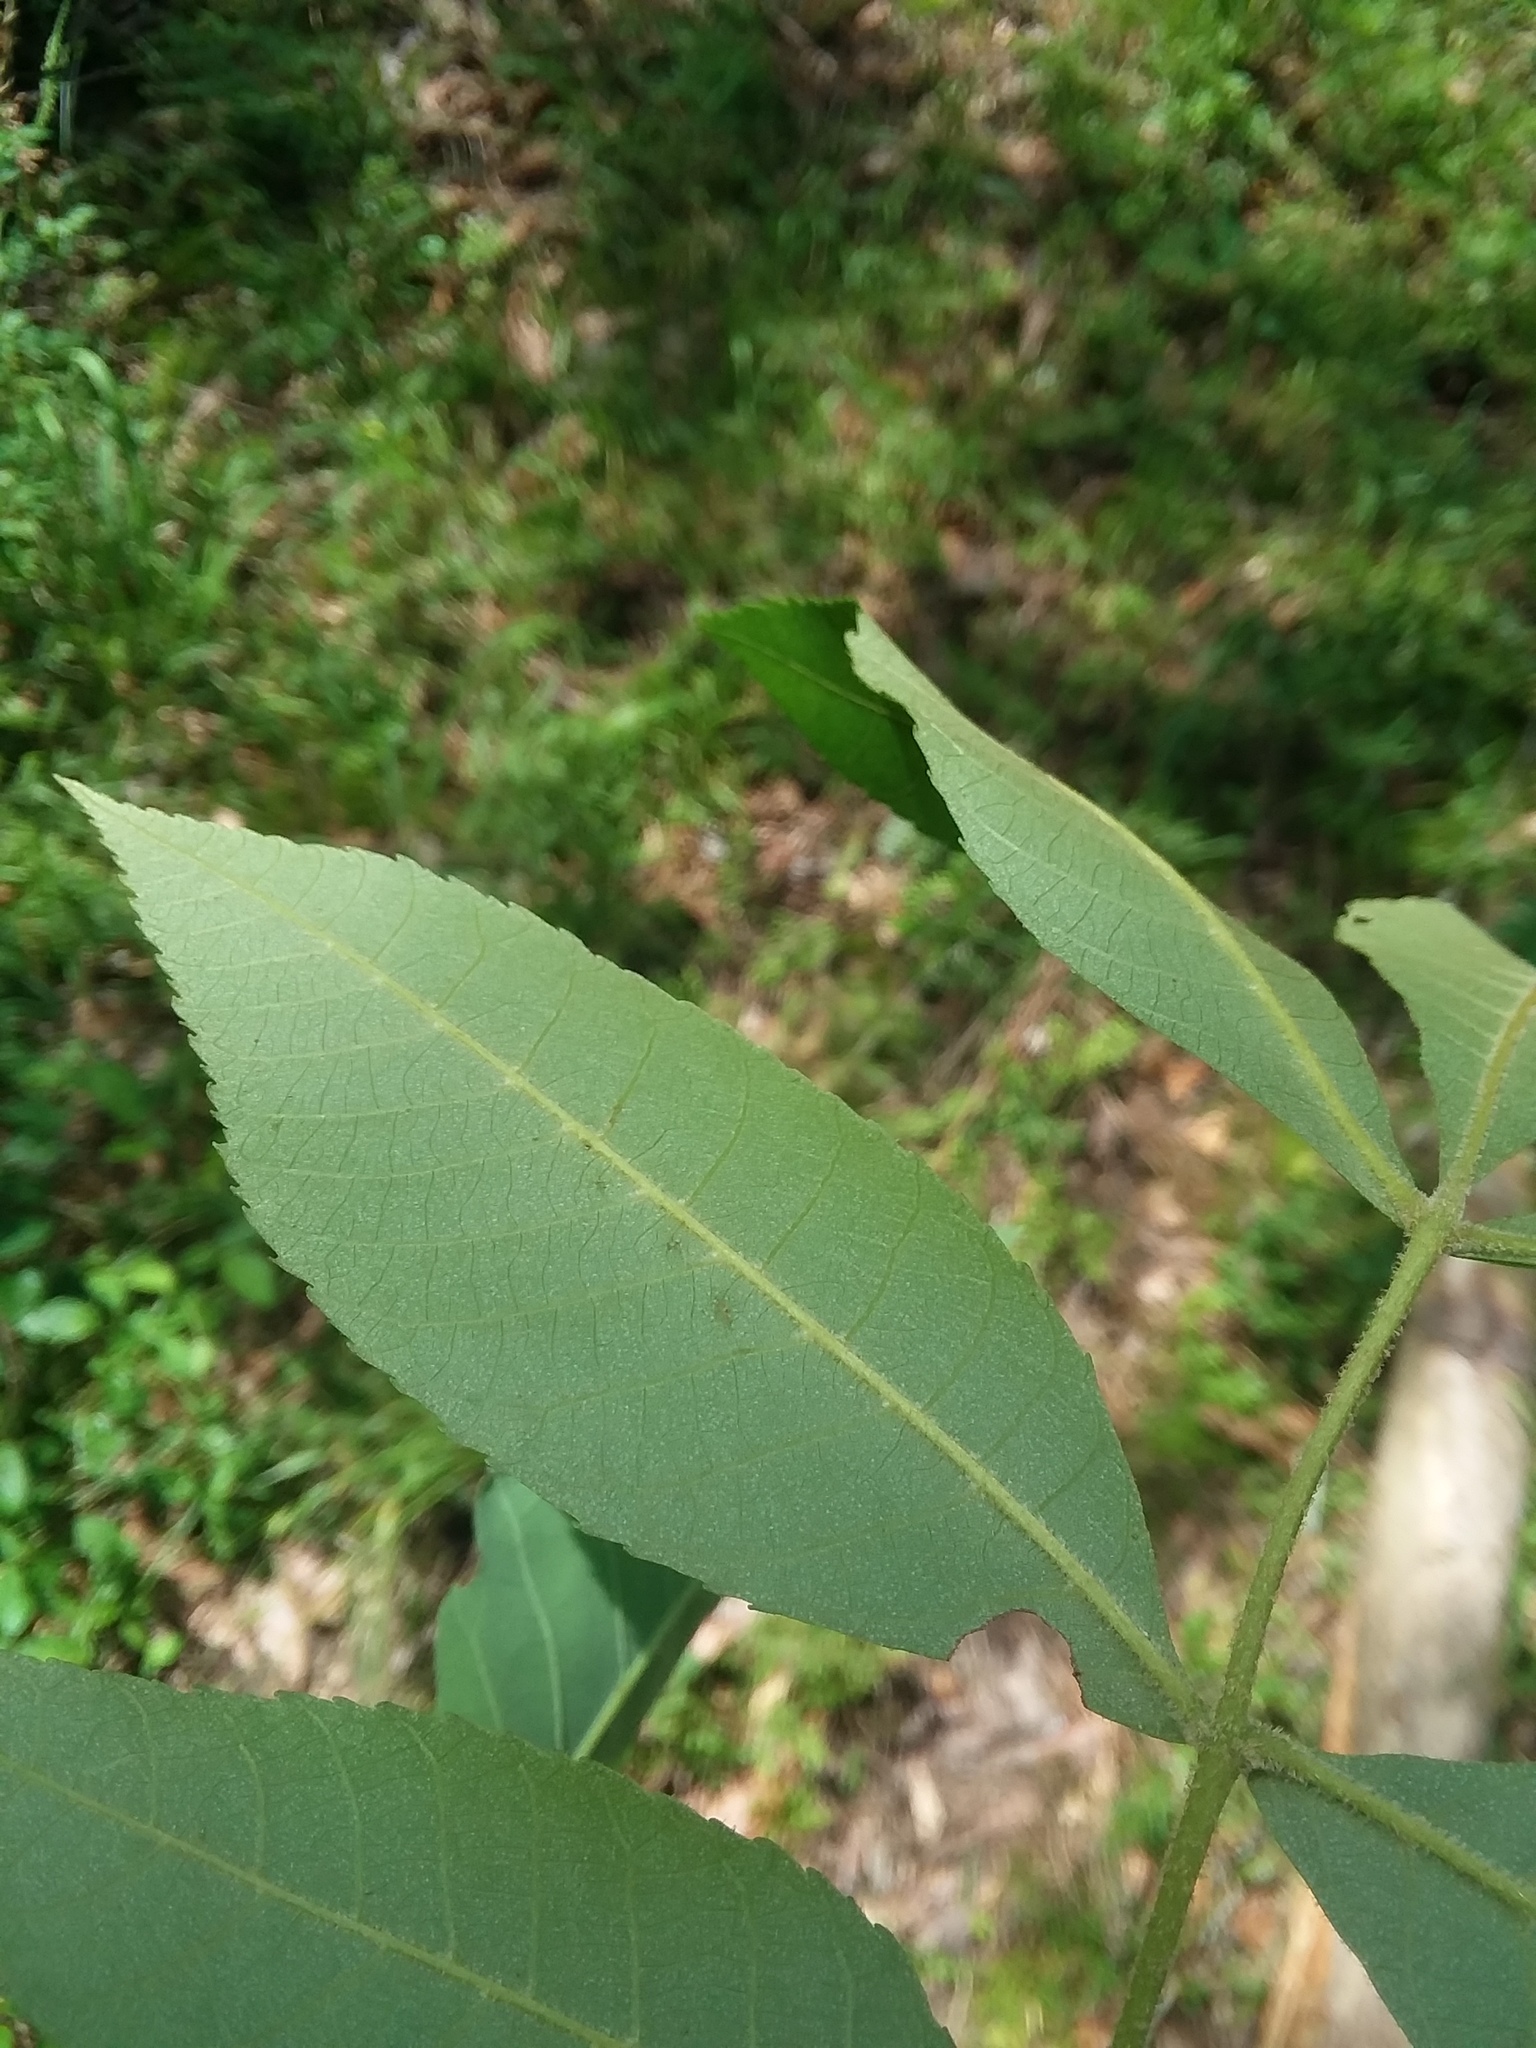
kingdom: Plantae
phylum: Tracheophyta
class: Magnoliopsida
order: Fagales
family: Juglandaceae
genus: Carya
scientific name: Carya pallida
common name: Sand hickory
